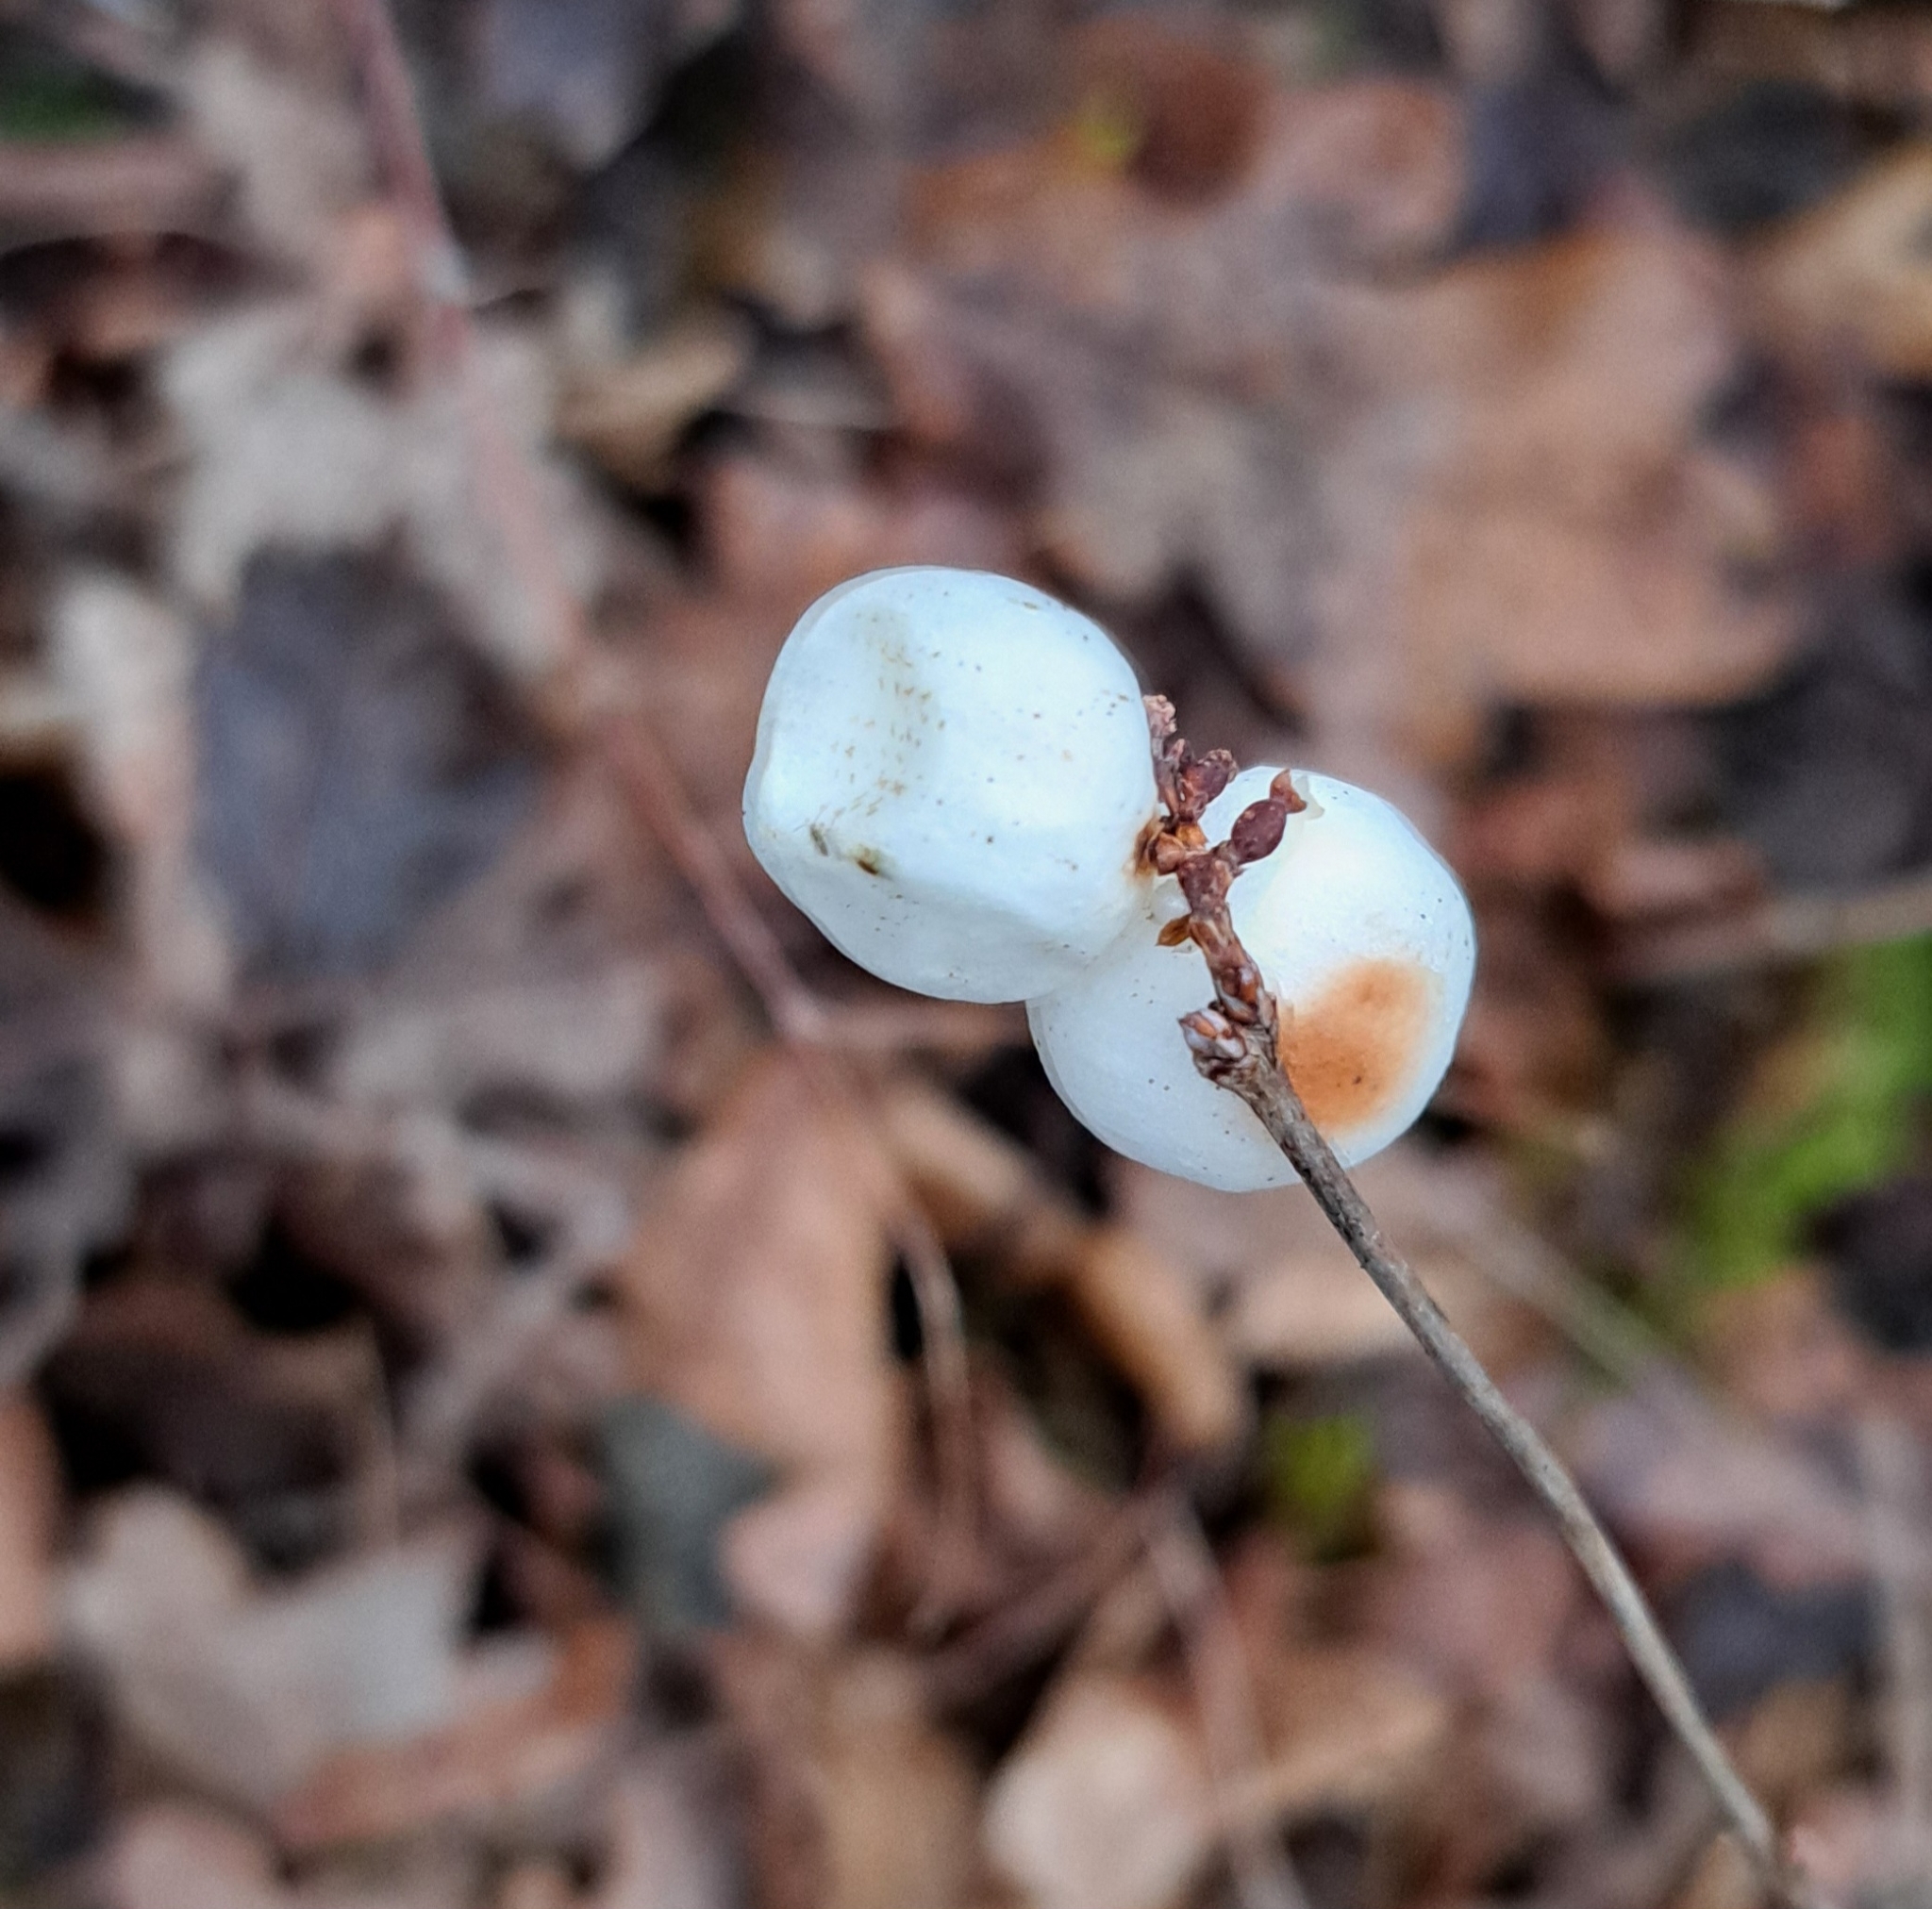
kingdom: Plantae
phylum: Tracheophyta
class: Magnoliopsida
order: Dipsacales
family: Caprifoliaceae
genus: Symphoricarpos
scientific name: Symphoricarpos albus
